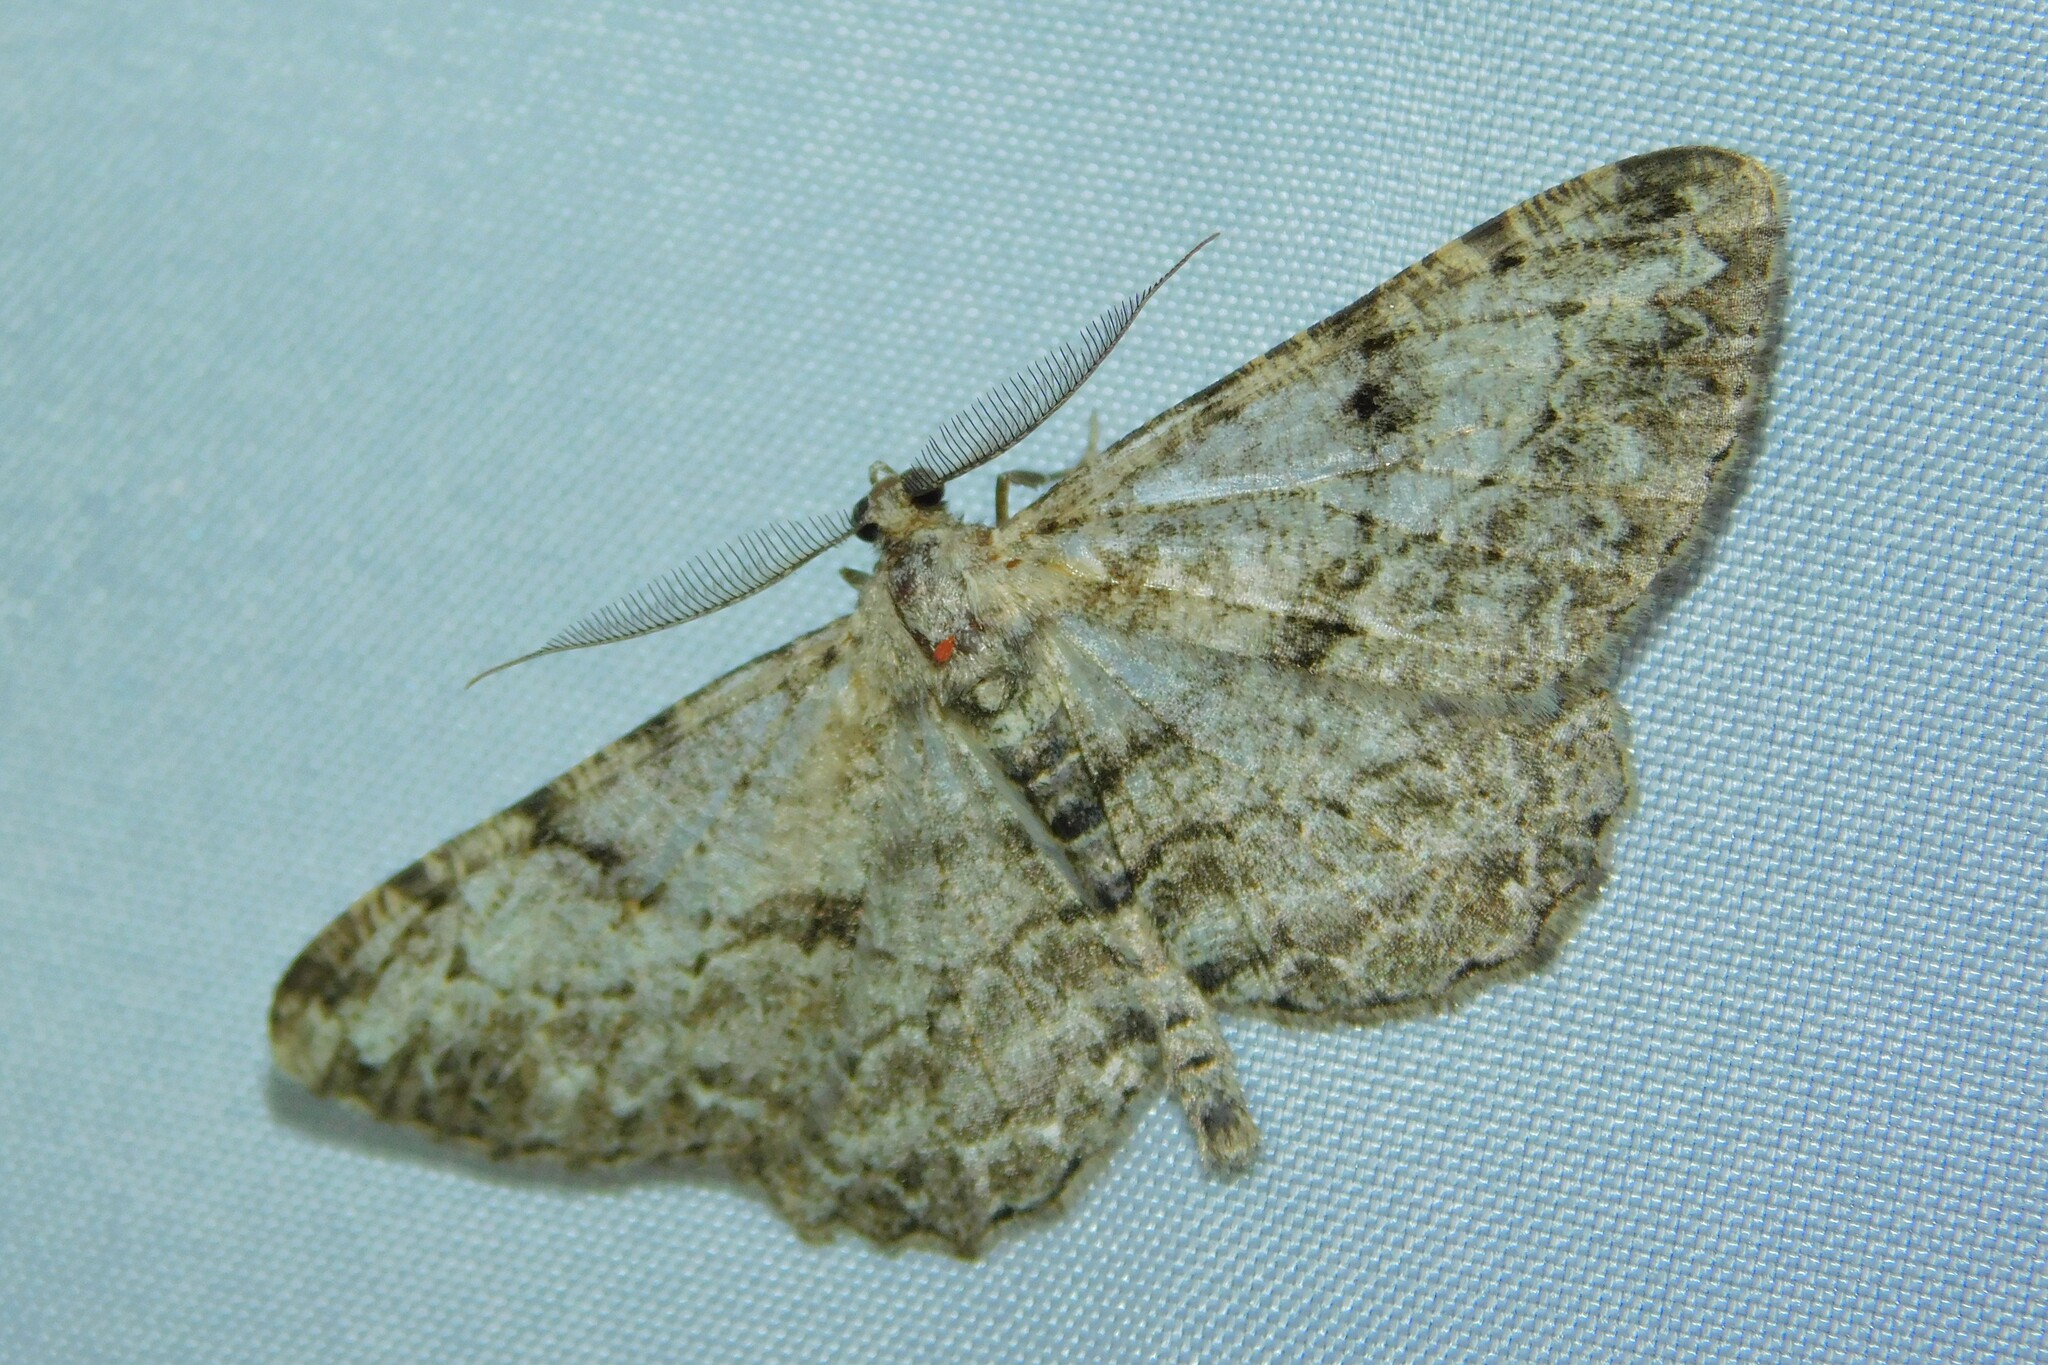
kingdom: Animalia
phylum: Arthropoda
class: Insecta
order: Lepidoptera
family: Geometridae
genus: Peribatodes
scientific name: Peribatodes rhomboidaria
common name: Willow beauty
